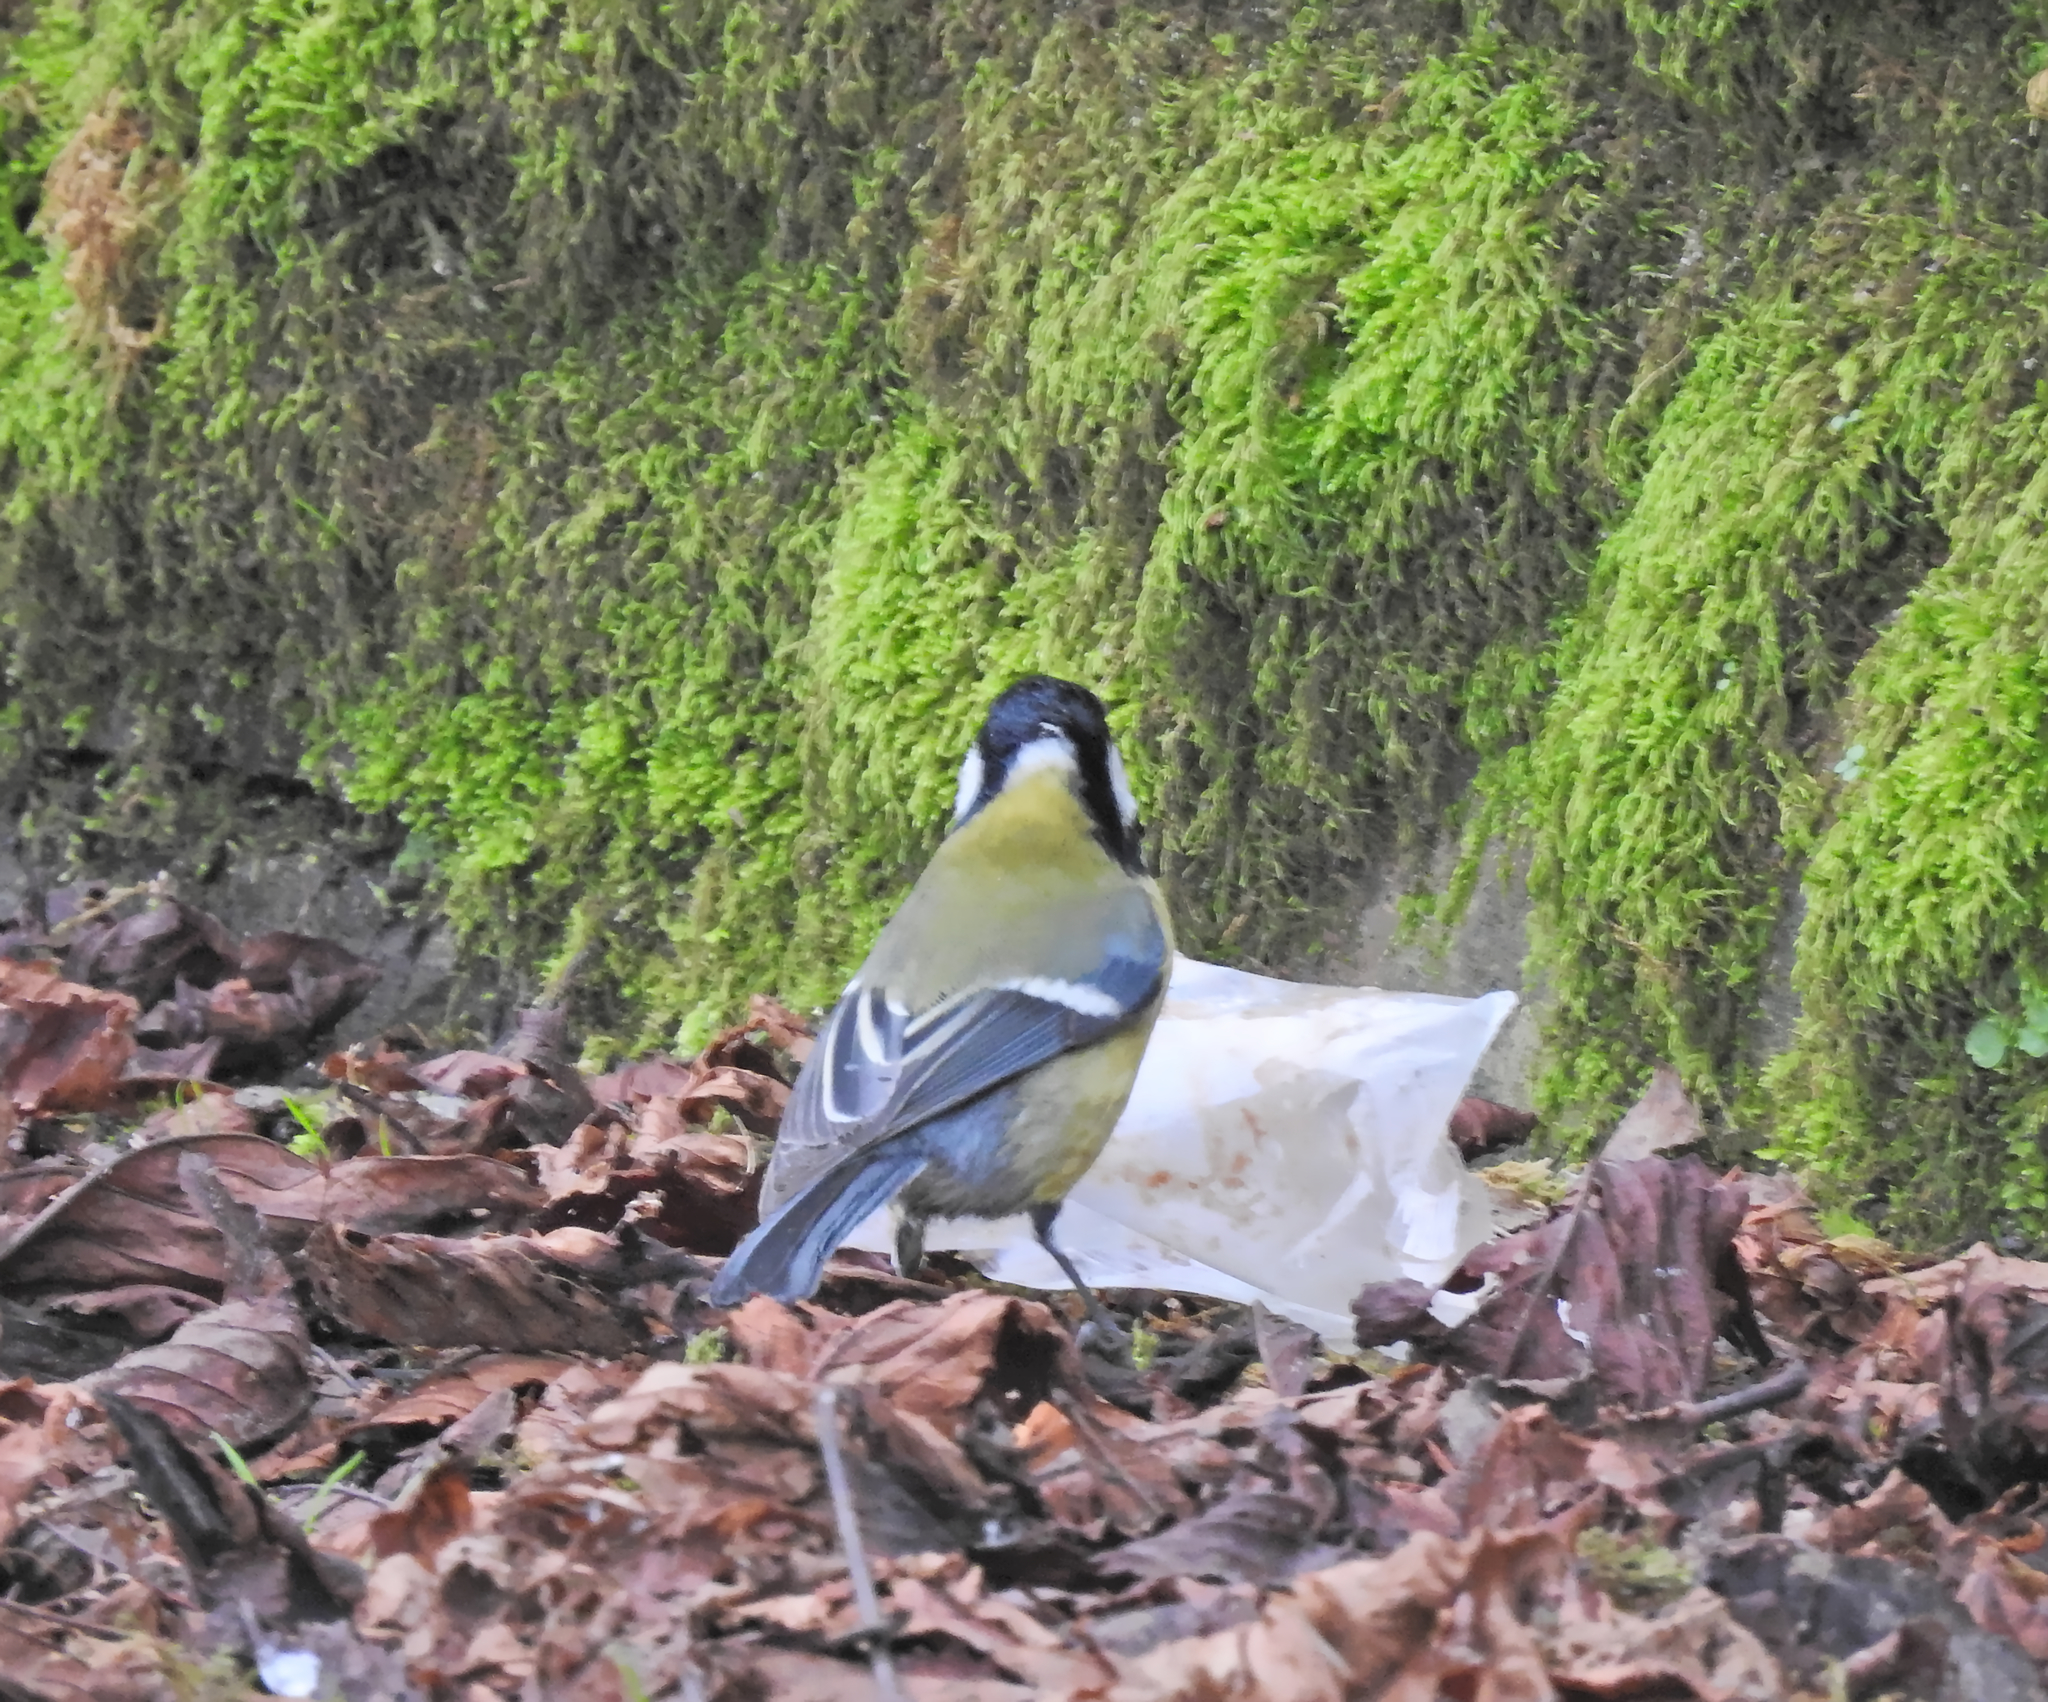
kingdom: Animalia
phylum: Chordata
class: Aves
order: Passeriformes
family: Paridae
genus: Parus
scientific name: Parus major
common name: Great tit
